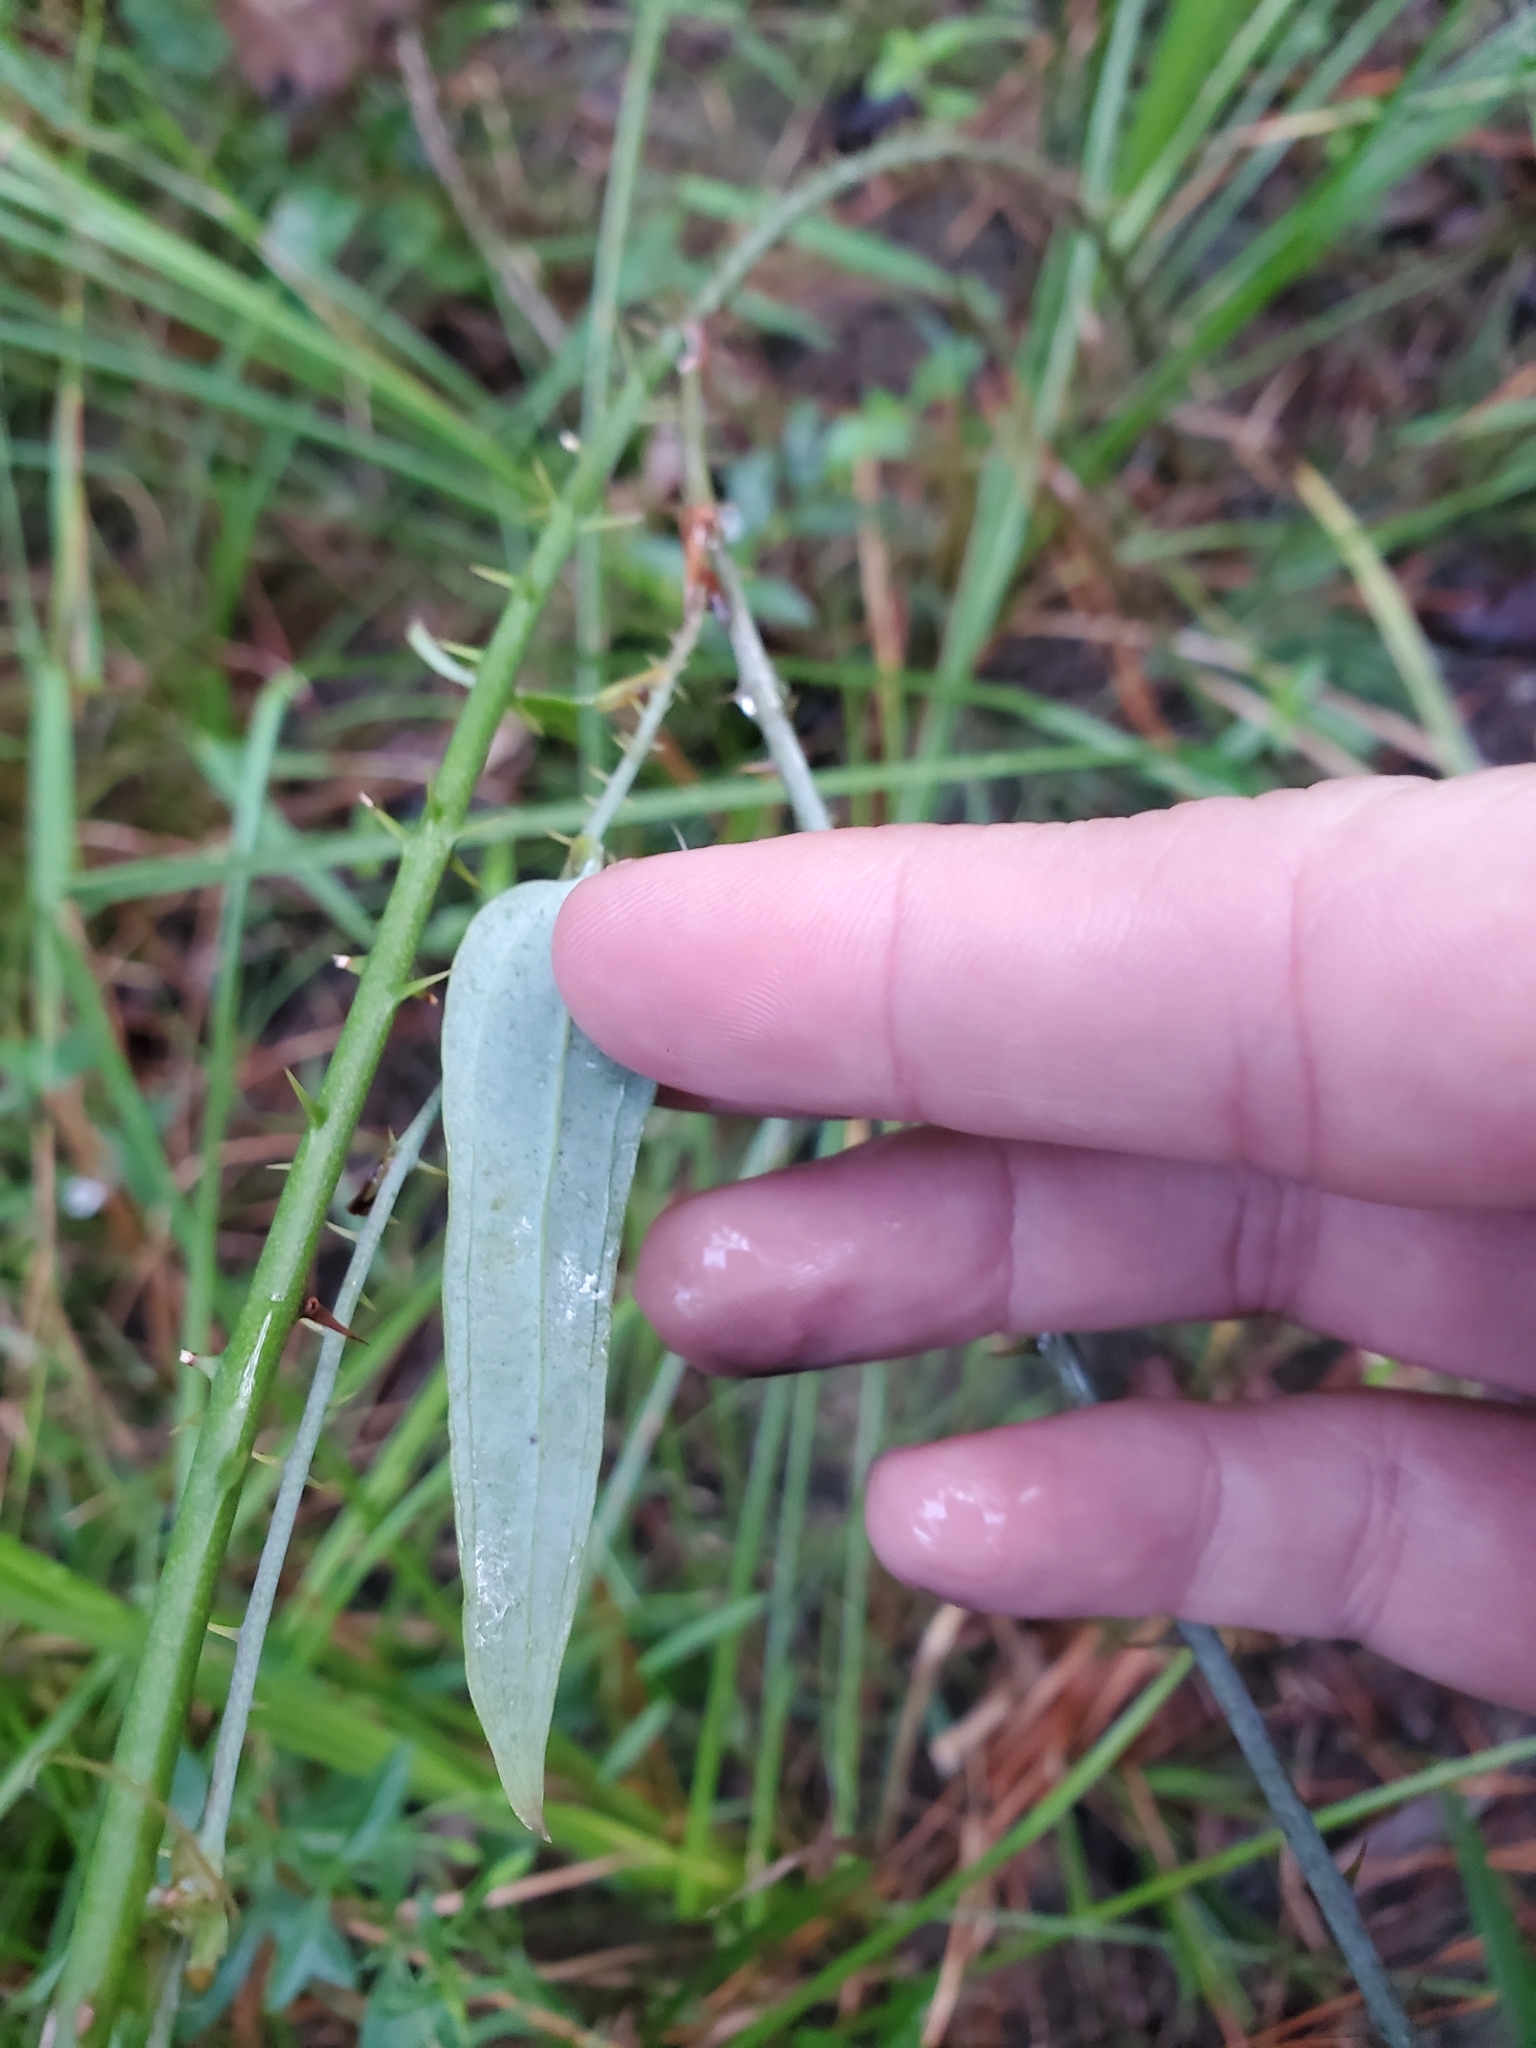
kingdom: Plantae
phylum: Tracheophyta
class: Liliopsida
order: Liliales
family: Smilacaceae
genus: Smilax
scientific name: Smilax glauca
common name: Cat greenbrier
